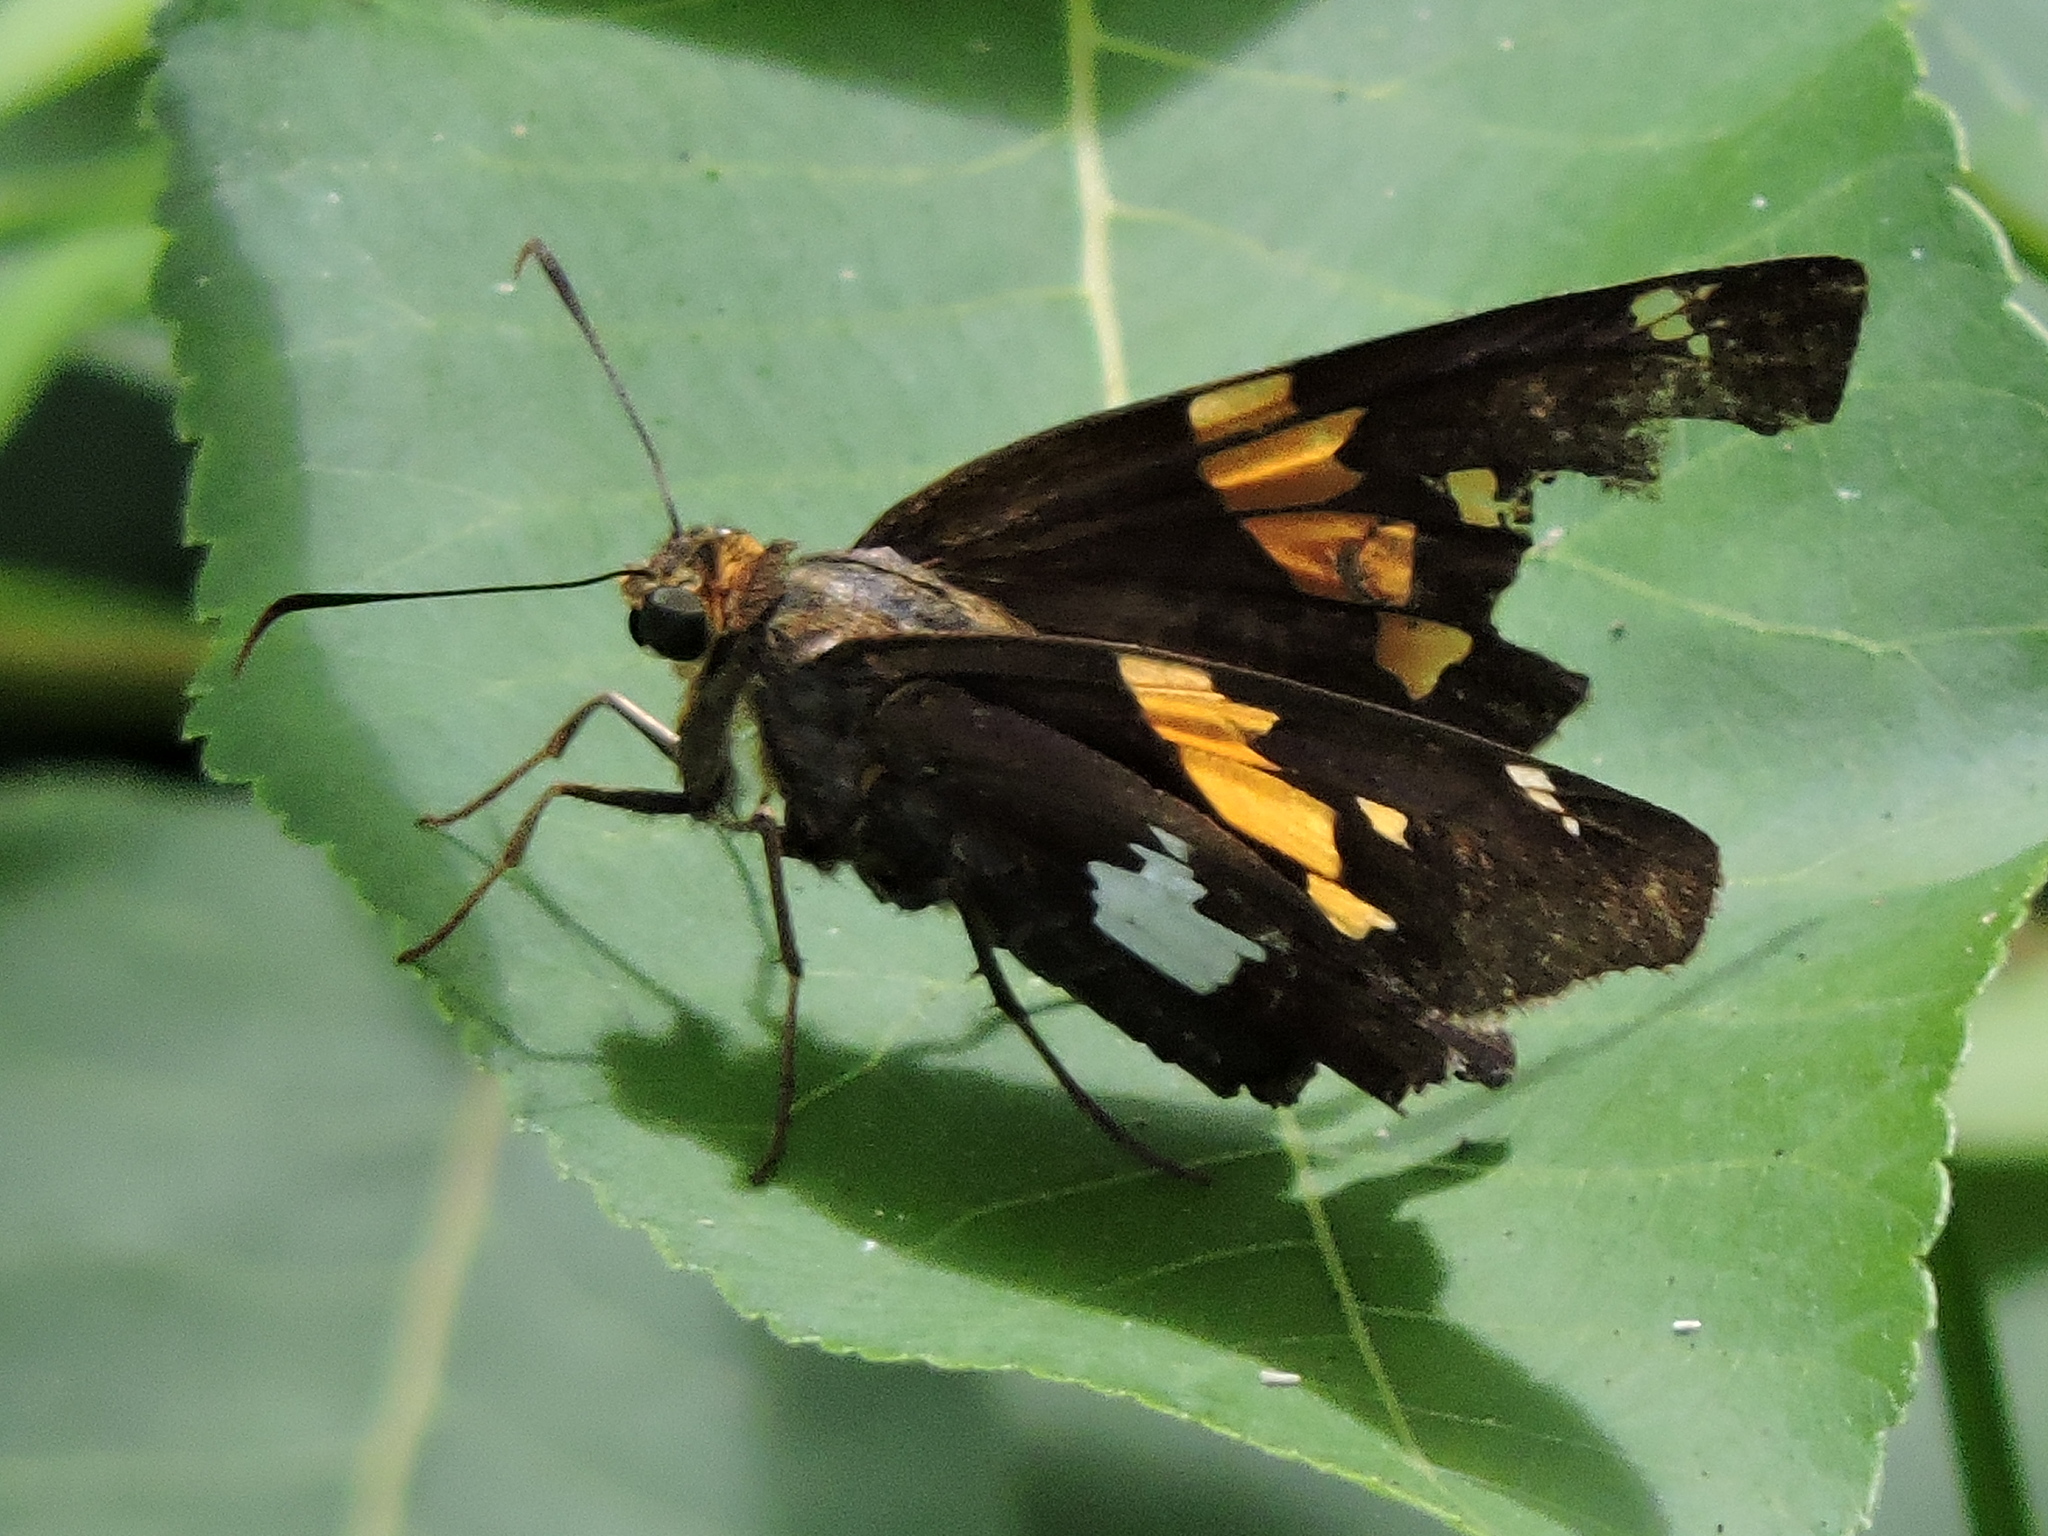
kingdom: Animalia
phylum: Arthropoda
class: Insecta
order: Lepidoptera
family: Hesperiidae
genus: Epargyreus
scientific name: Epargyreus clarus
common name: Silver-spotted skipper
